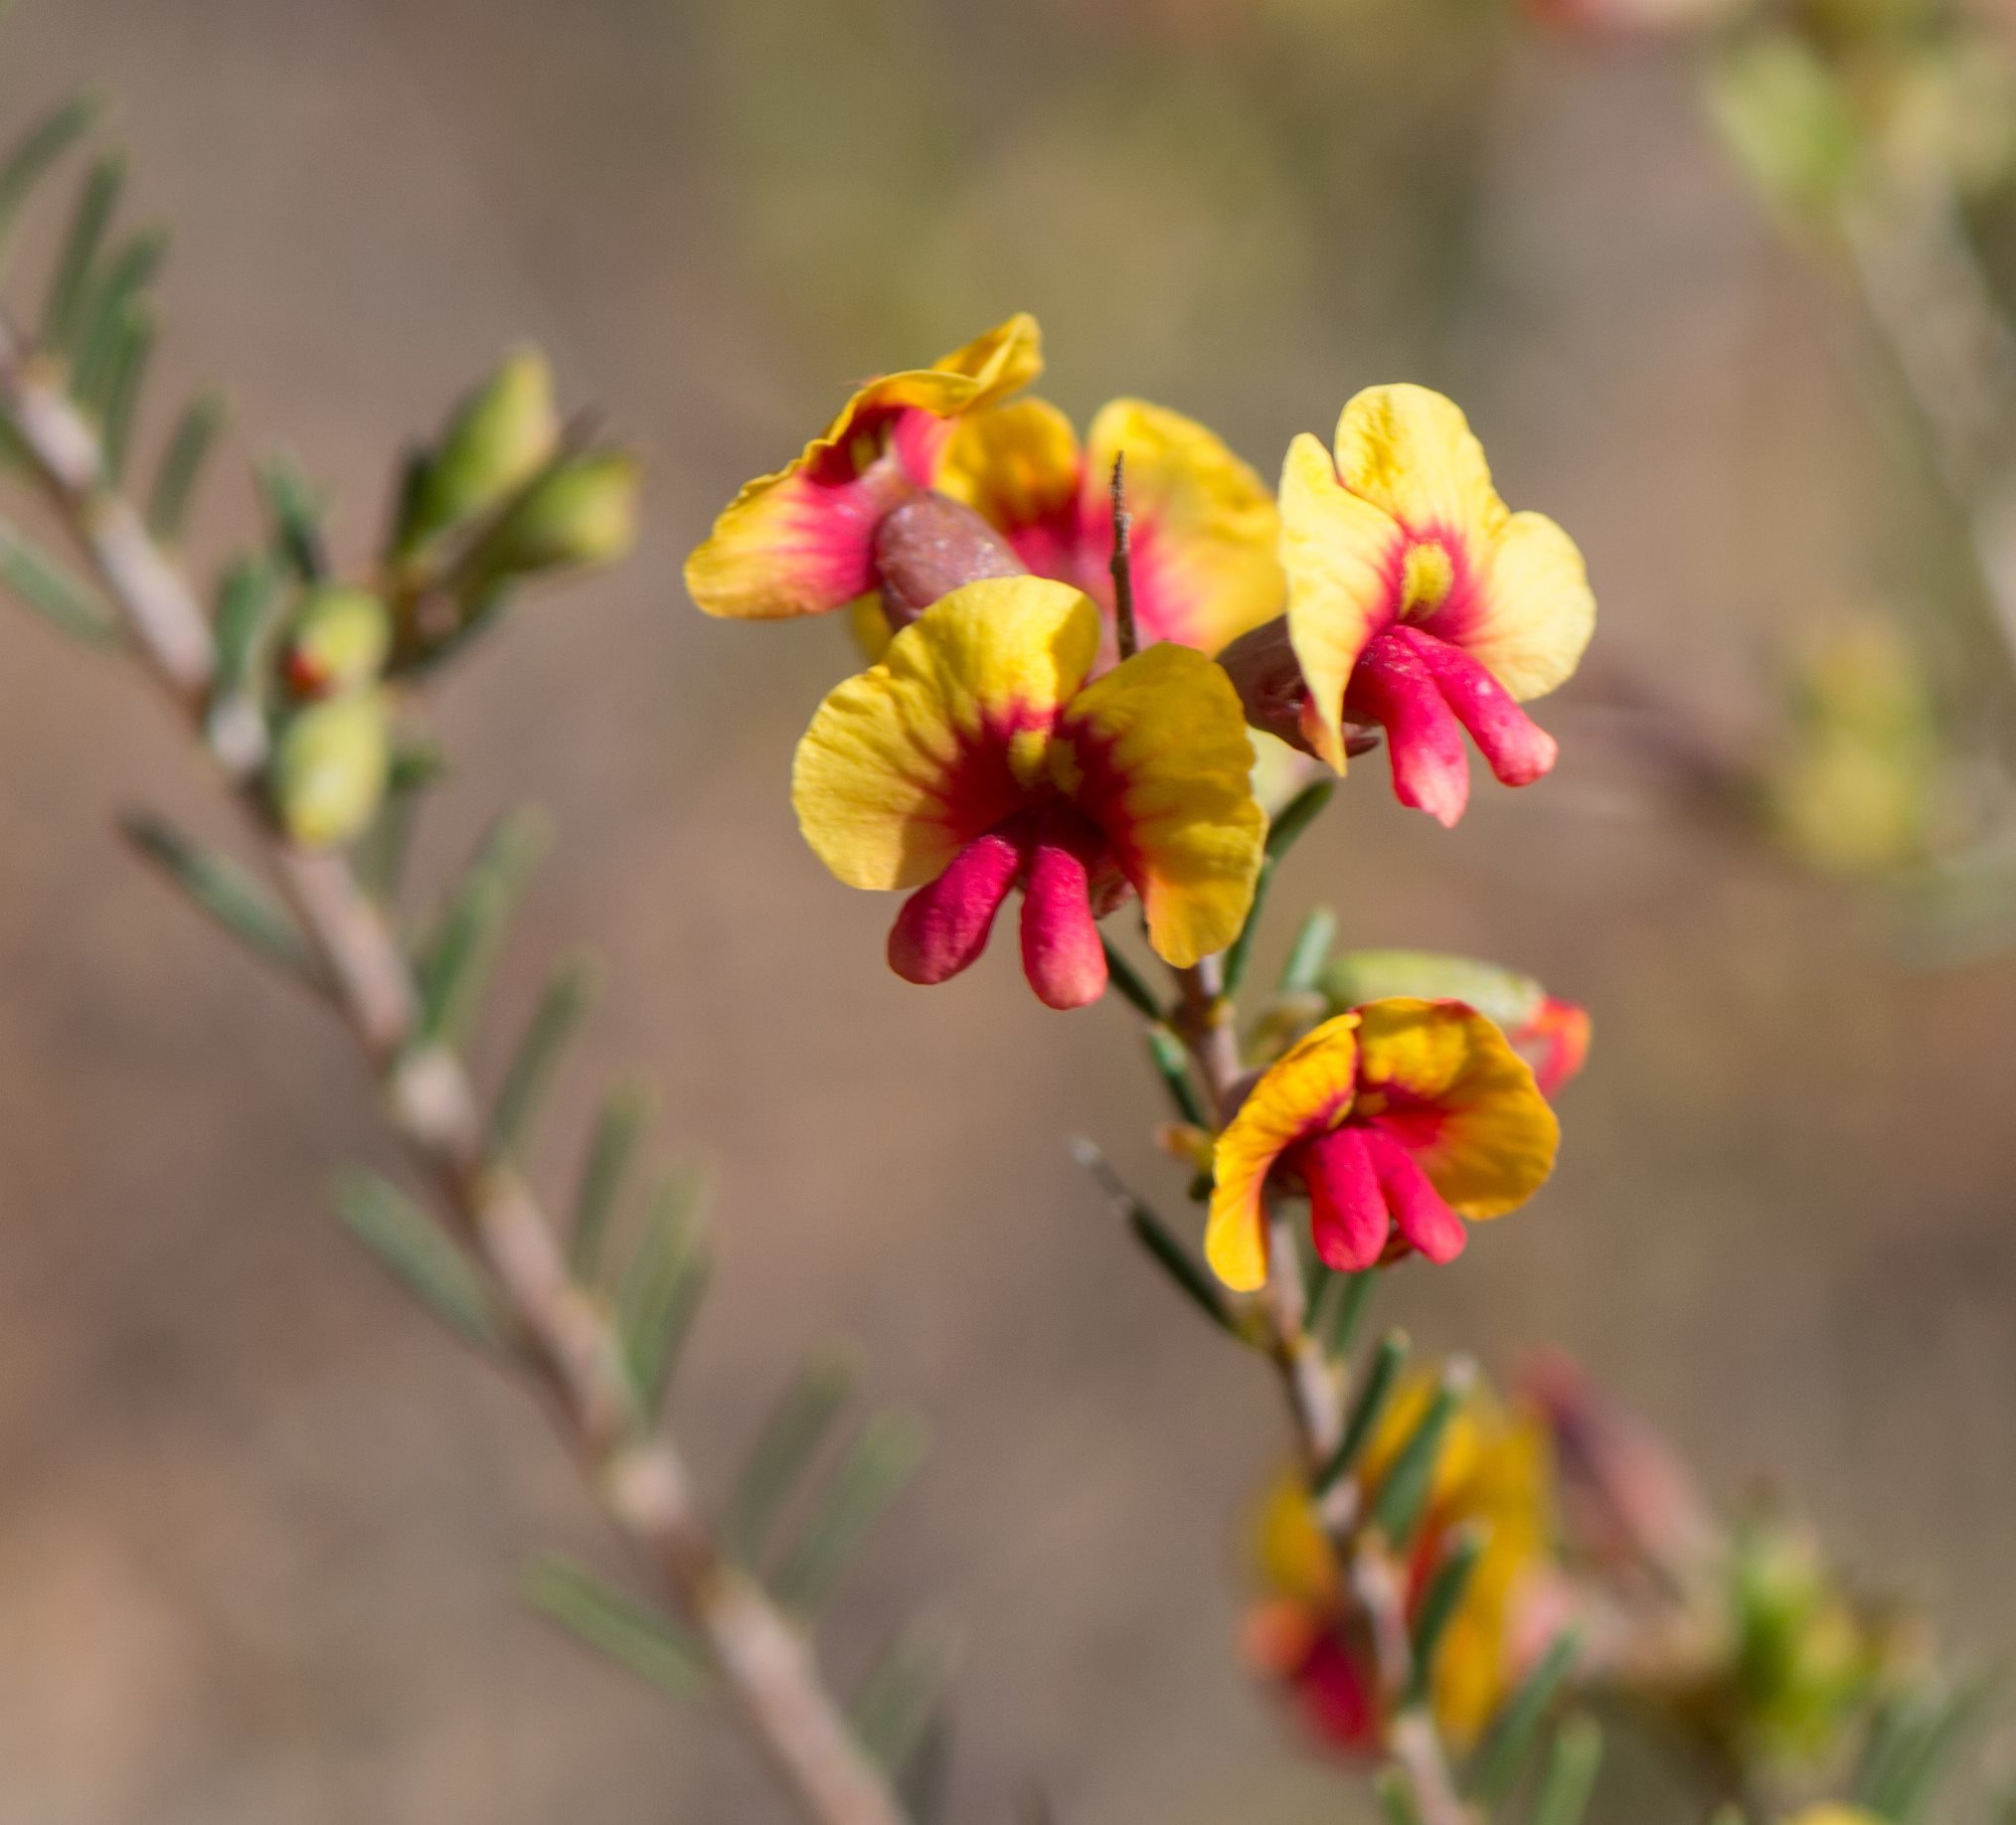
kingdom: Plantae
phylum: Tracheophyta
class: Magnoliopsida
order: Fabales
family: Fabaceae
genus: Dillwynia
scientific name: Dillwynia laxiflora
